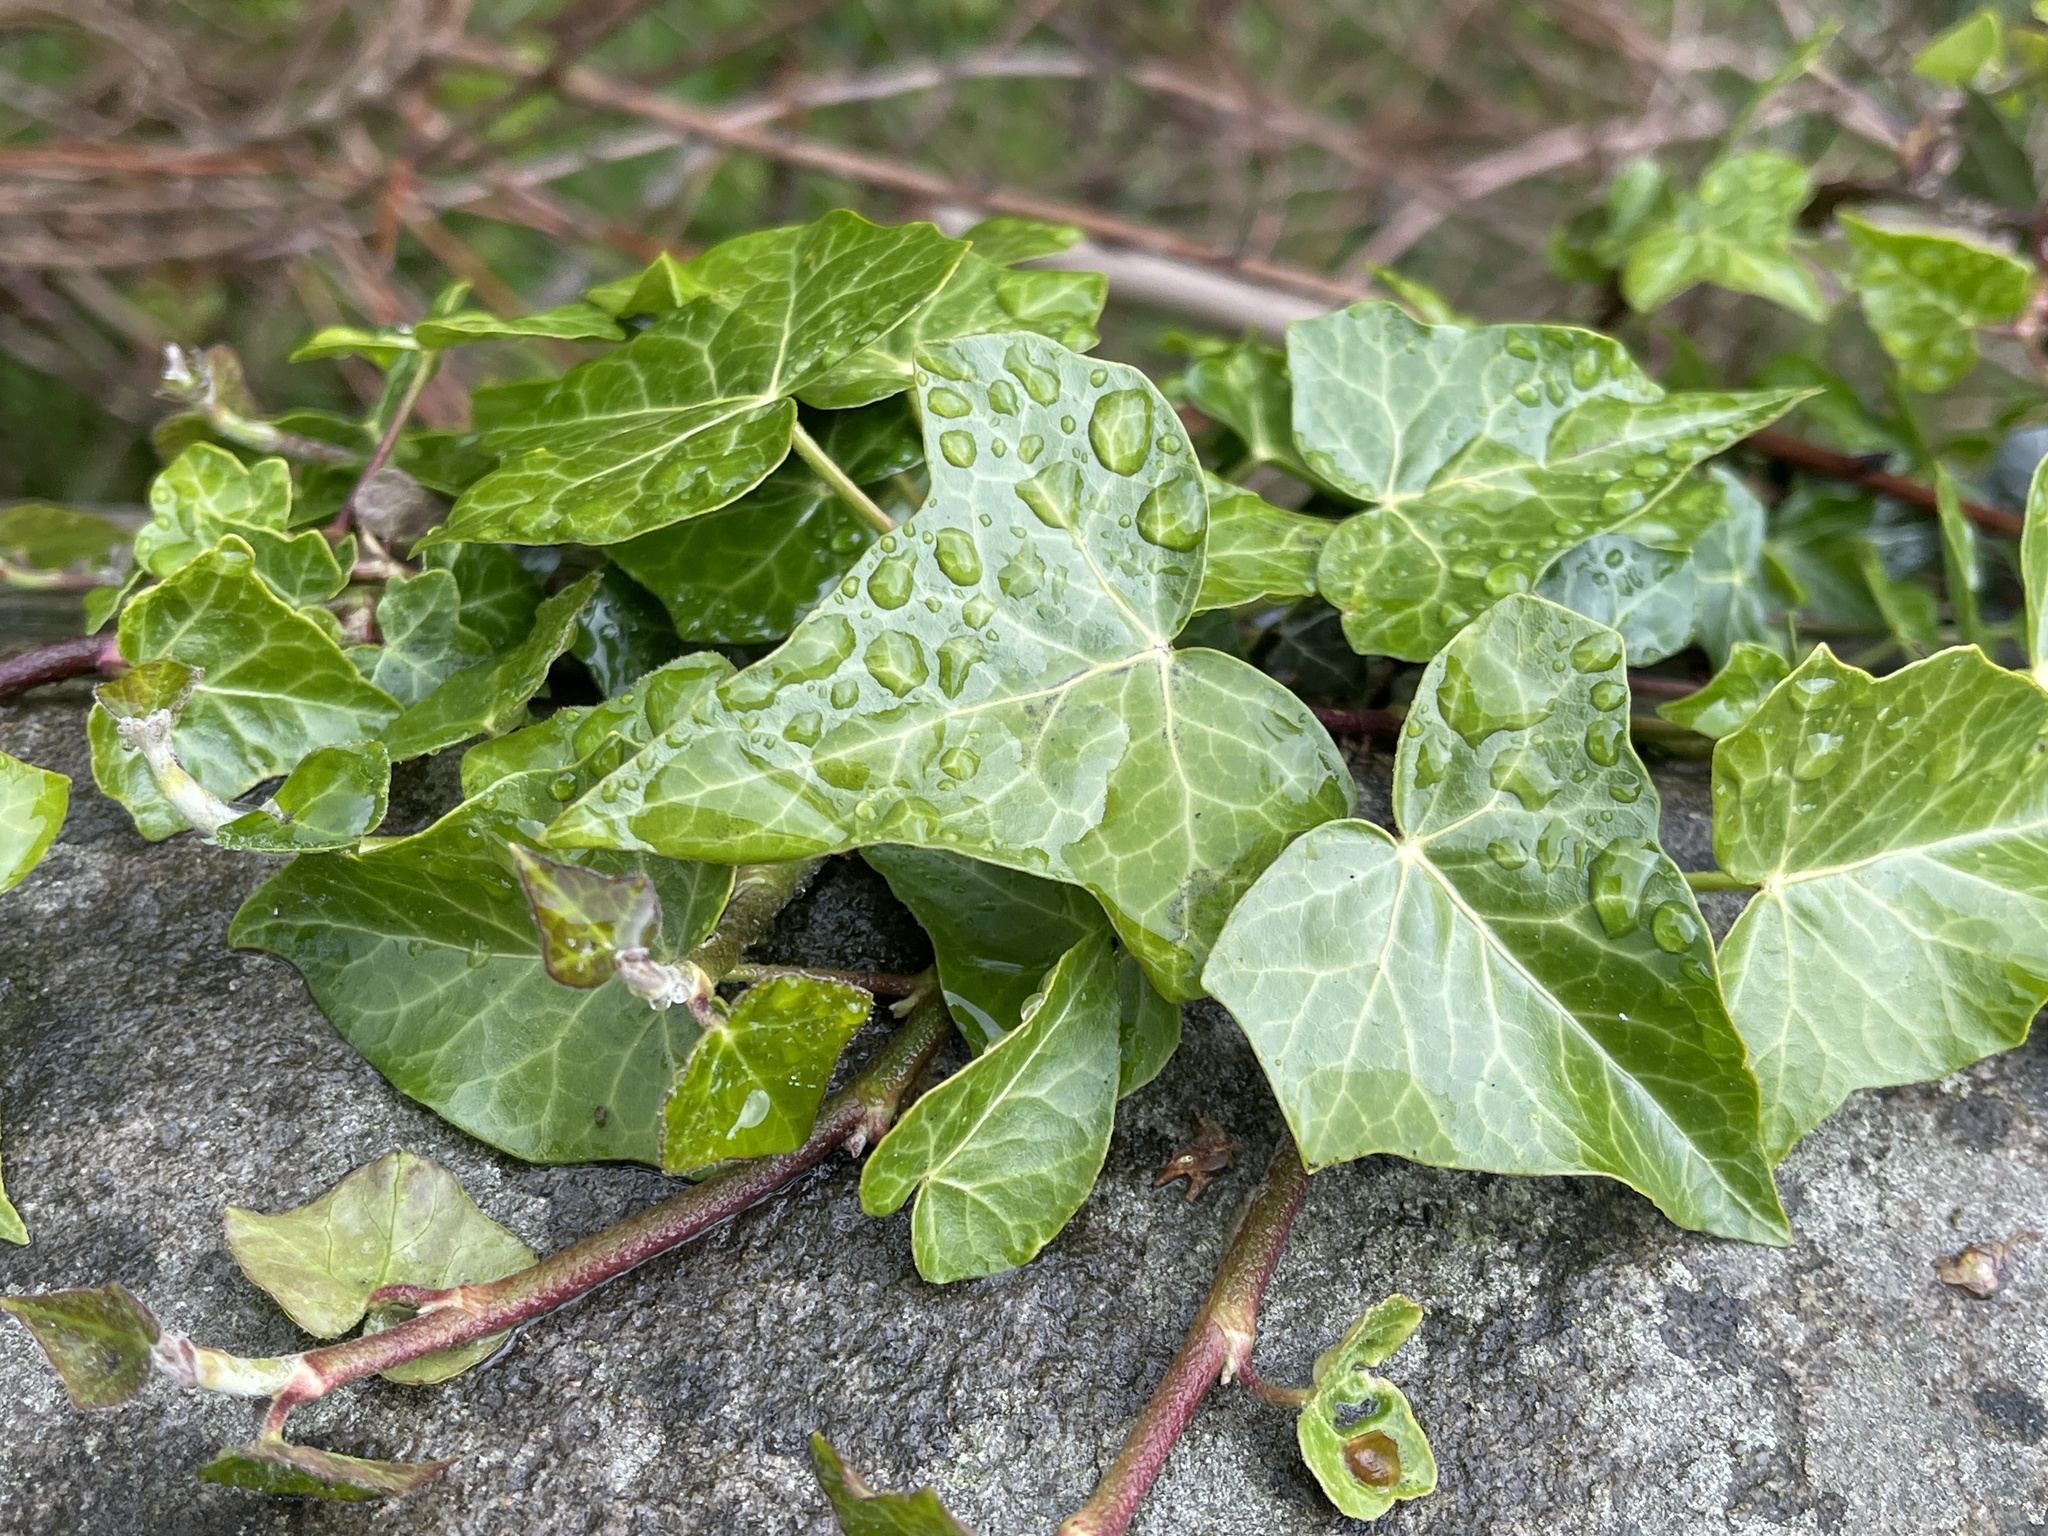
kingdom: Plantae
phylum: Tracheophyta
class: Magnoliopsida
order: Apiales
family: Araliaceae
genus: Hedera
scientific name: Hedera helix
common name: Ivy
